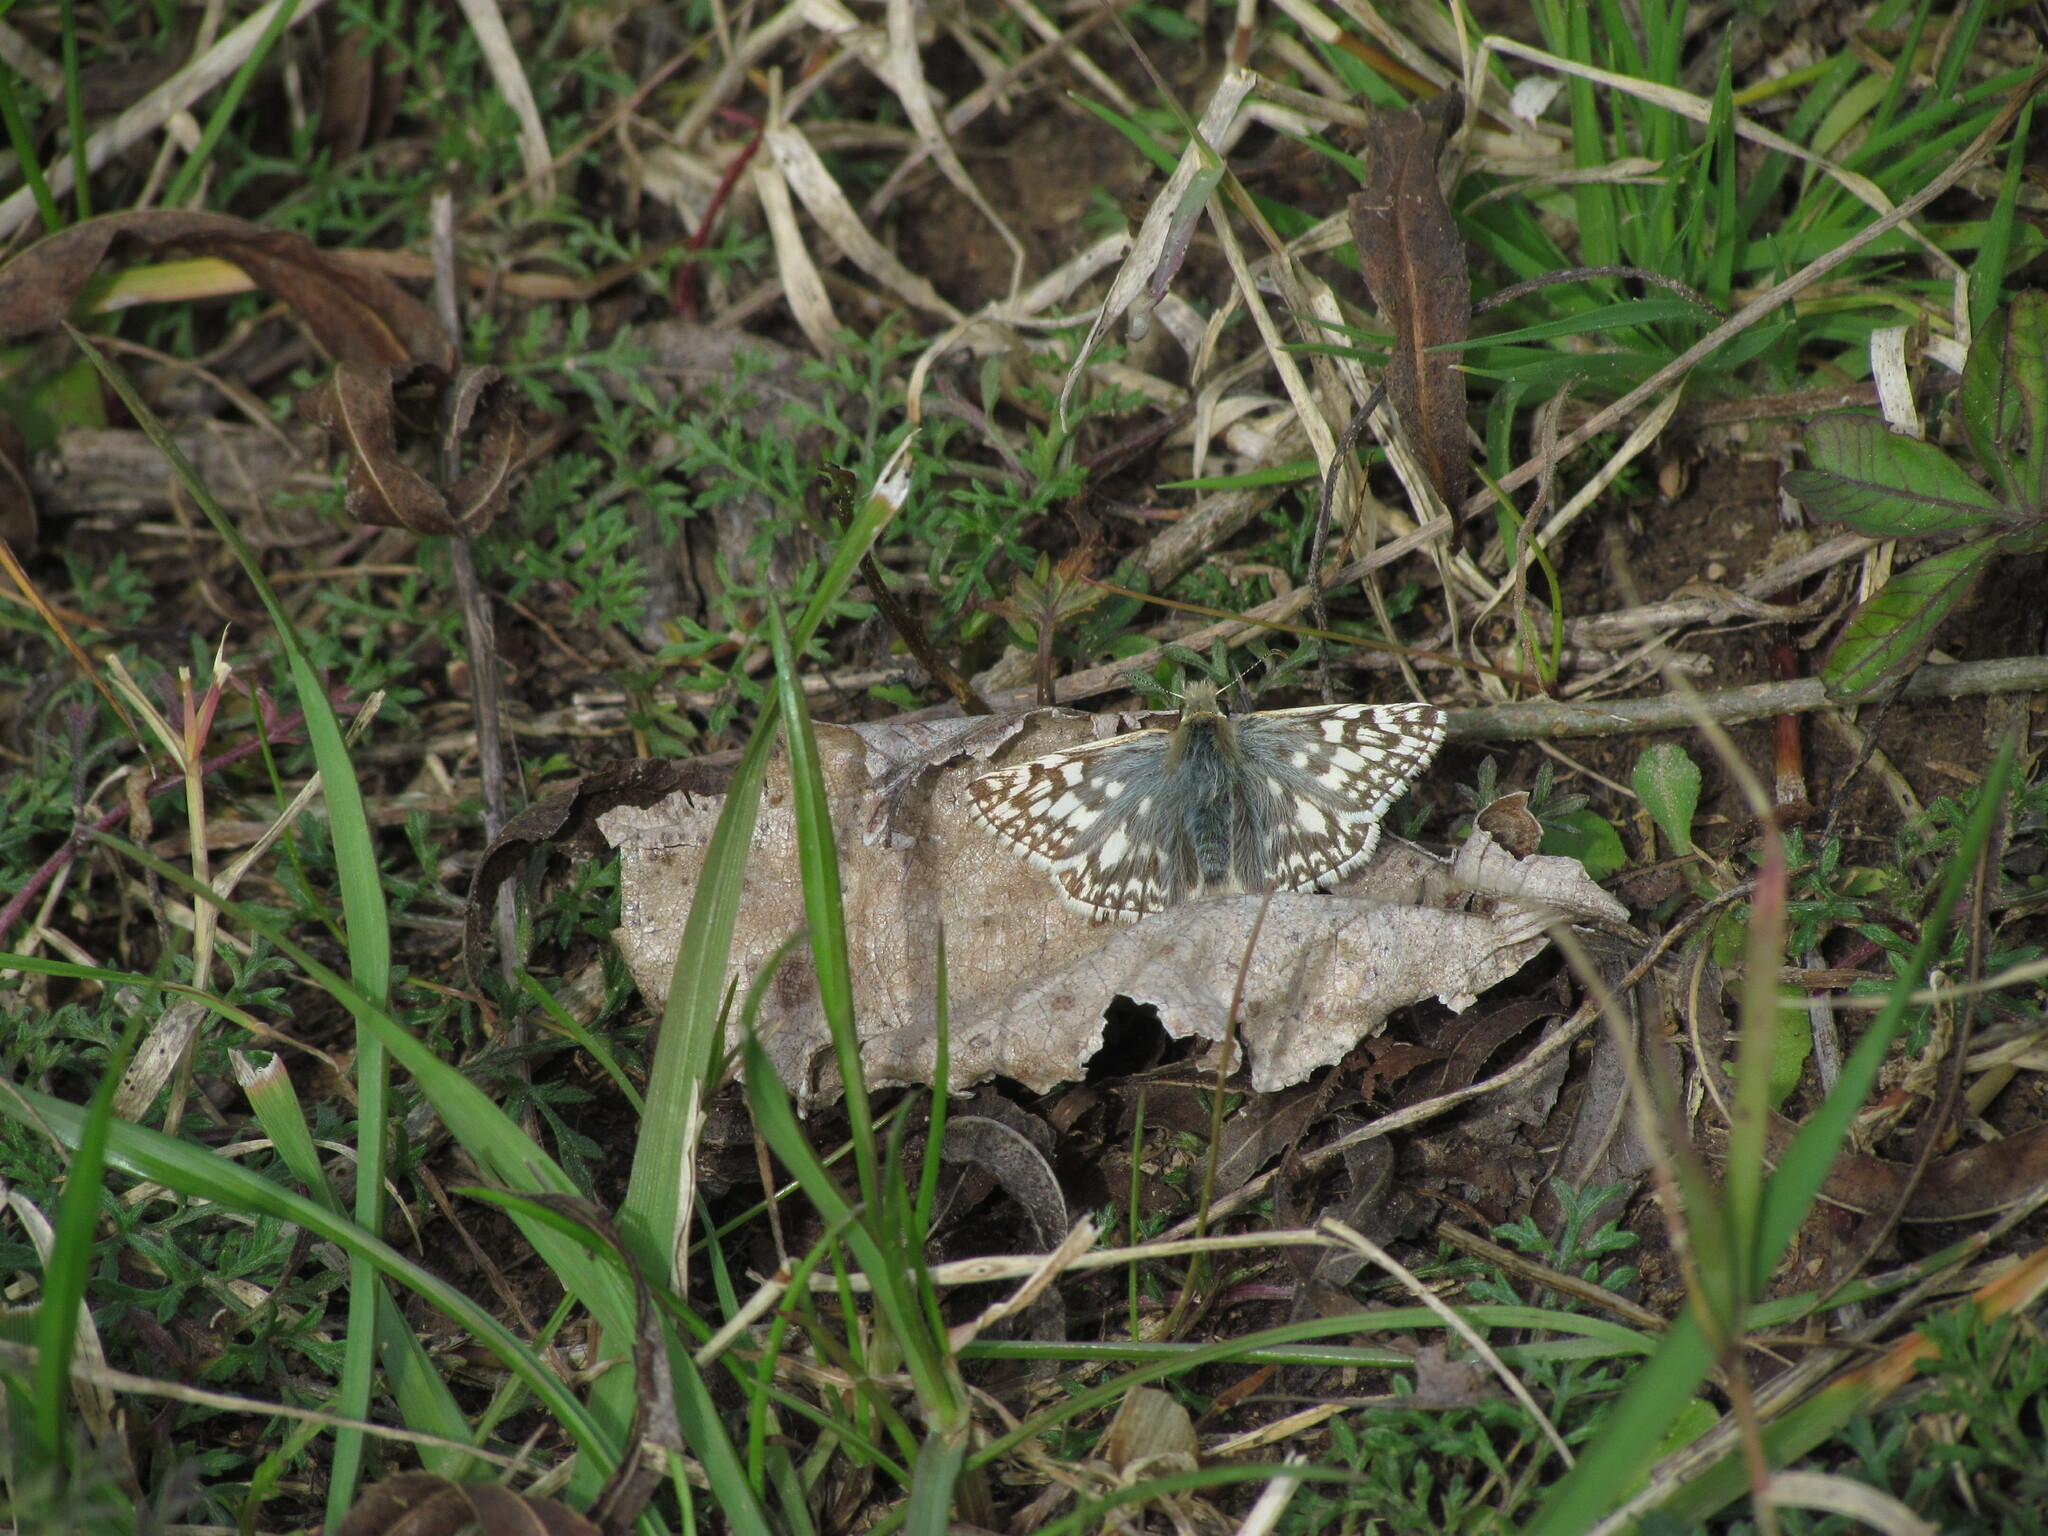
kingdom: Animalia
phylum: Arthropoda
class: Insecta
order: Lepidoptera
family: Hesperiidae
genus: Pyrgus
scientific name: Pyrgus oileus
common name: Tropical checkered-skipper
